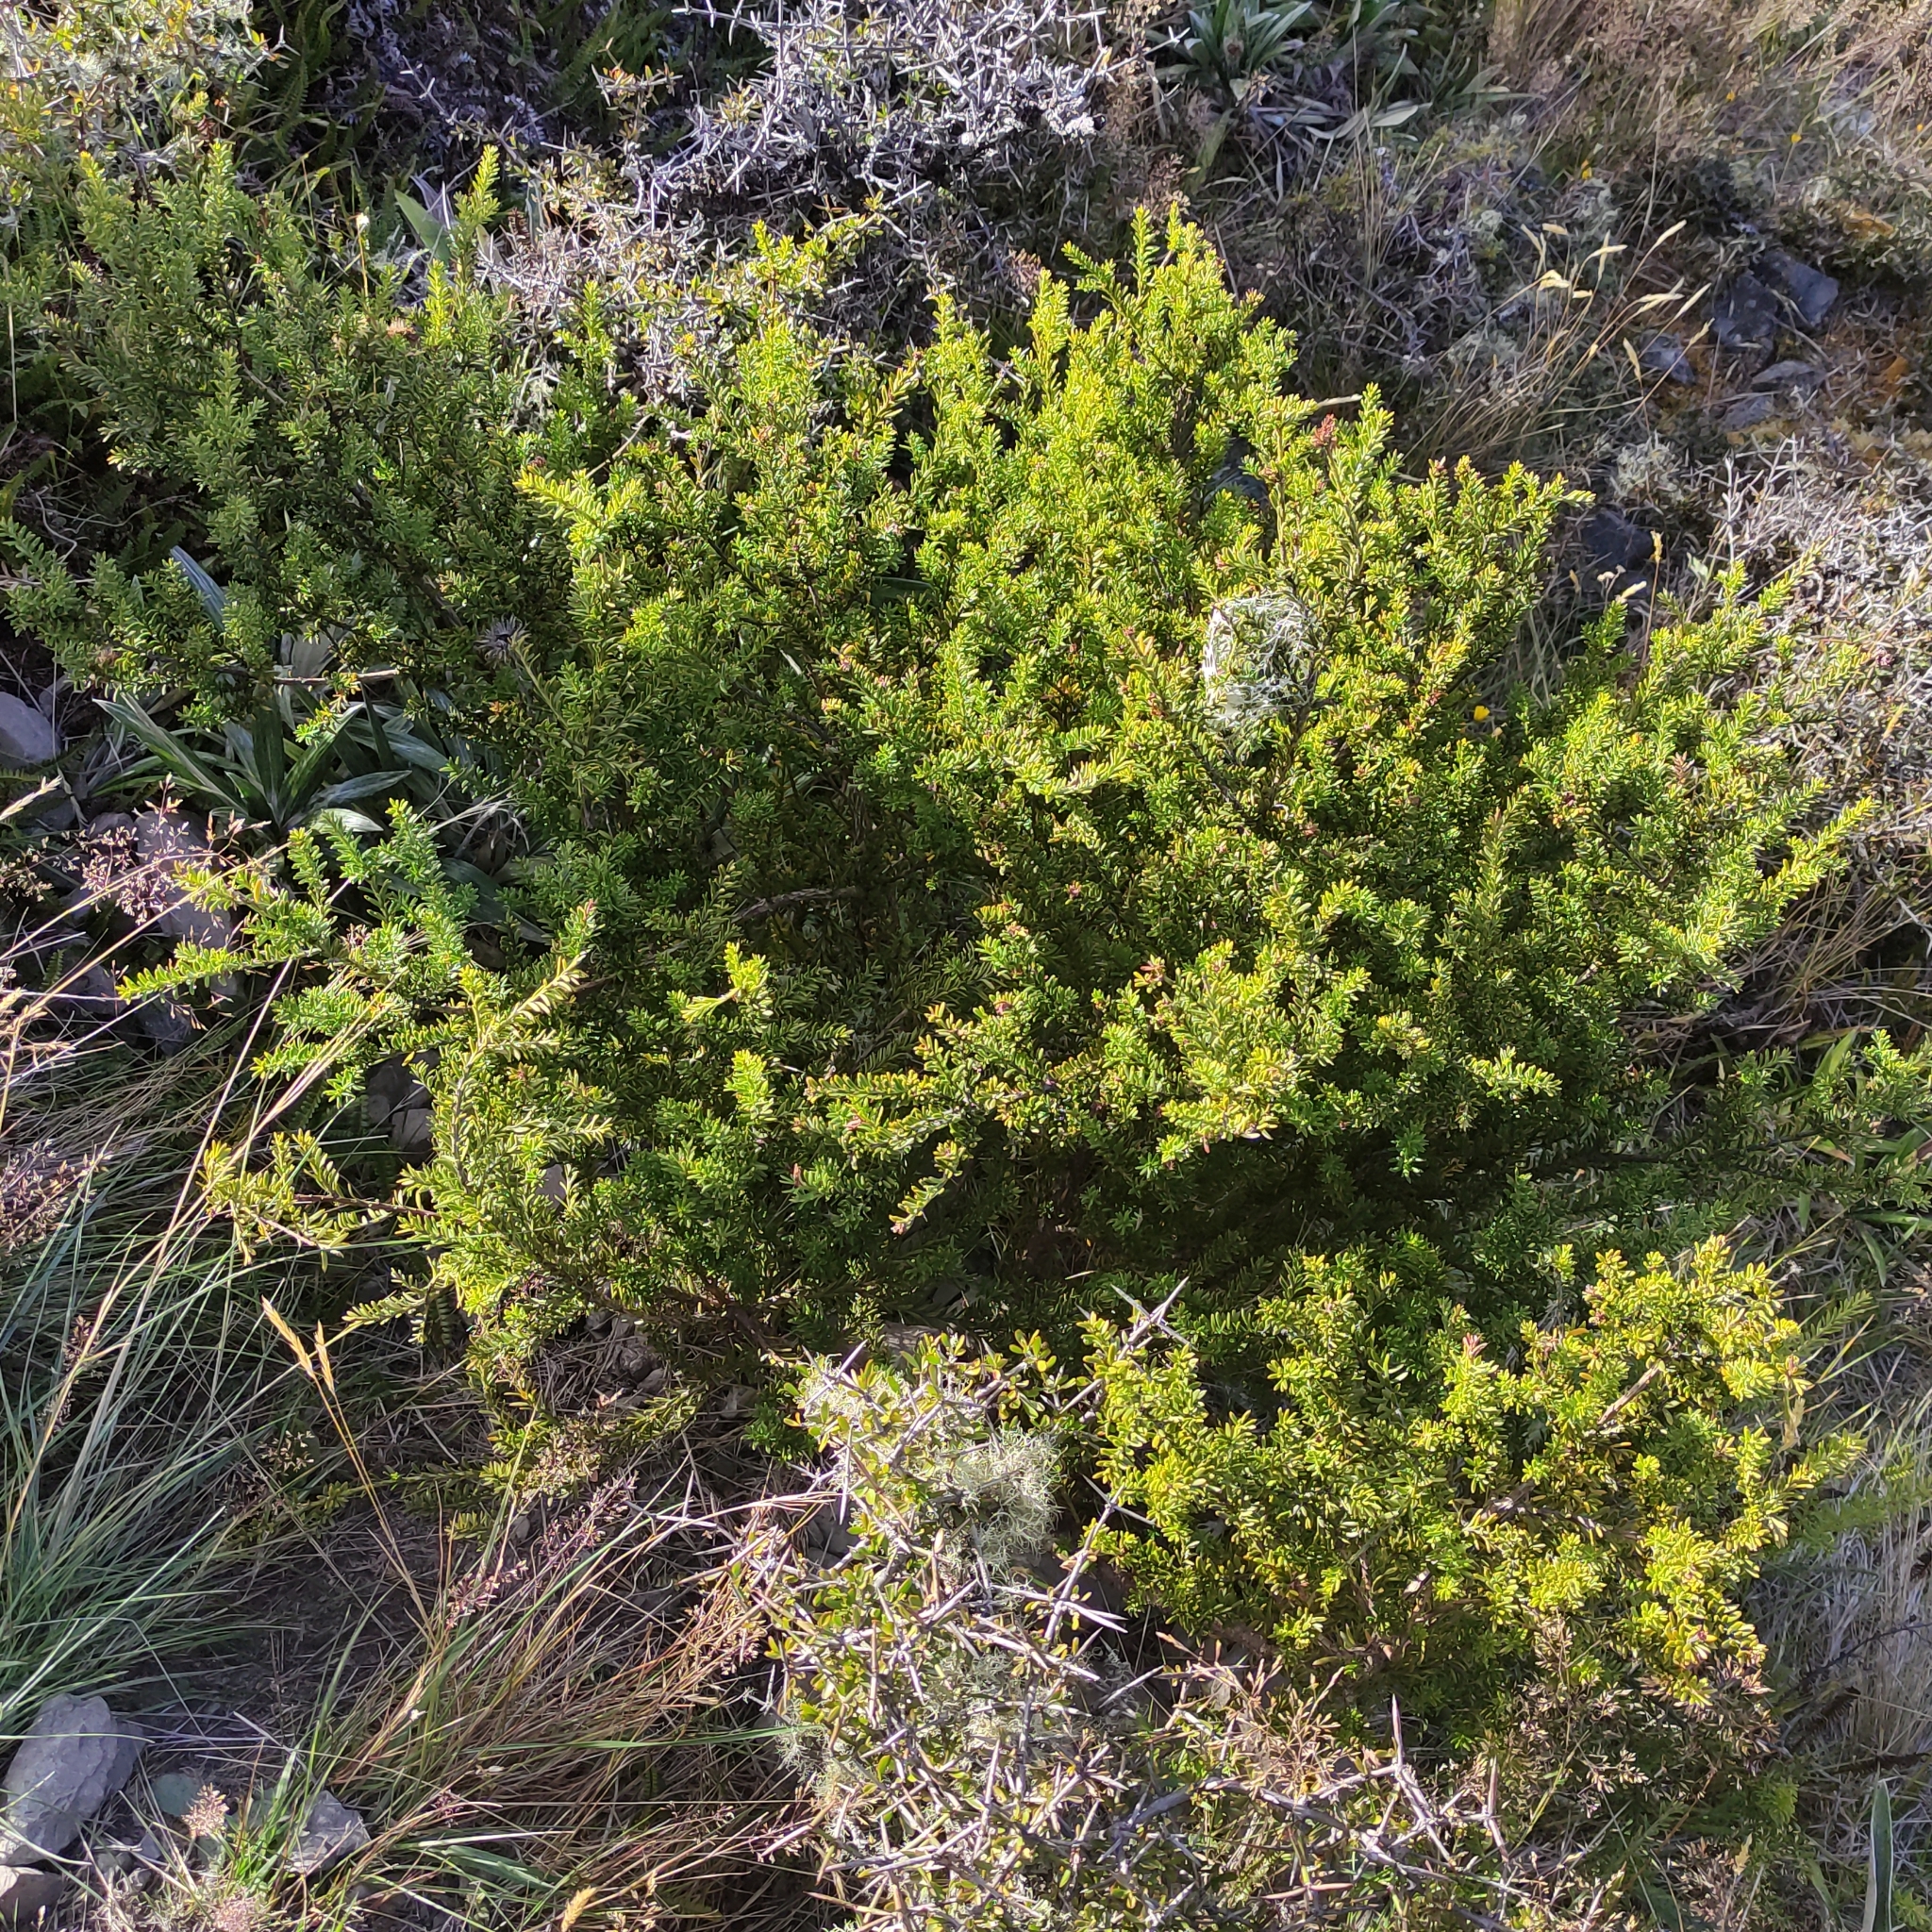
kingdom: Plantae
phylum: Tracheophyta
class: Pinopsida
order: Pinales
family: Podocarpaceae
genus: Podocarpus
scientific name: Podocarpus nivalis
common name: Alpine totara
